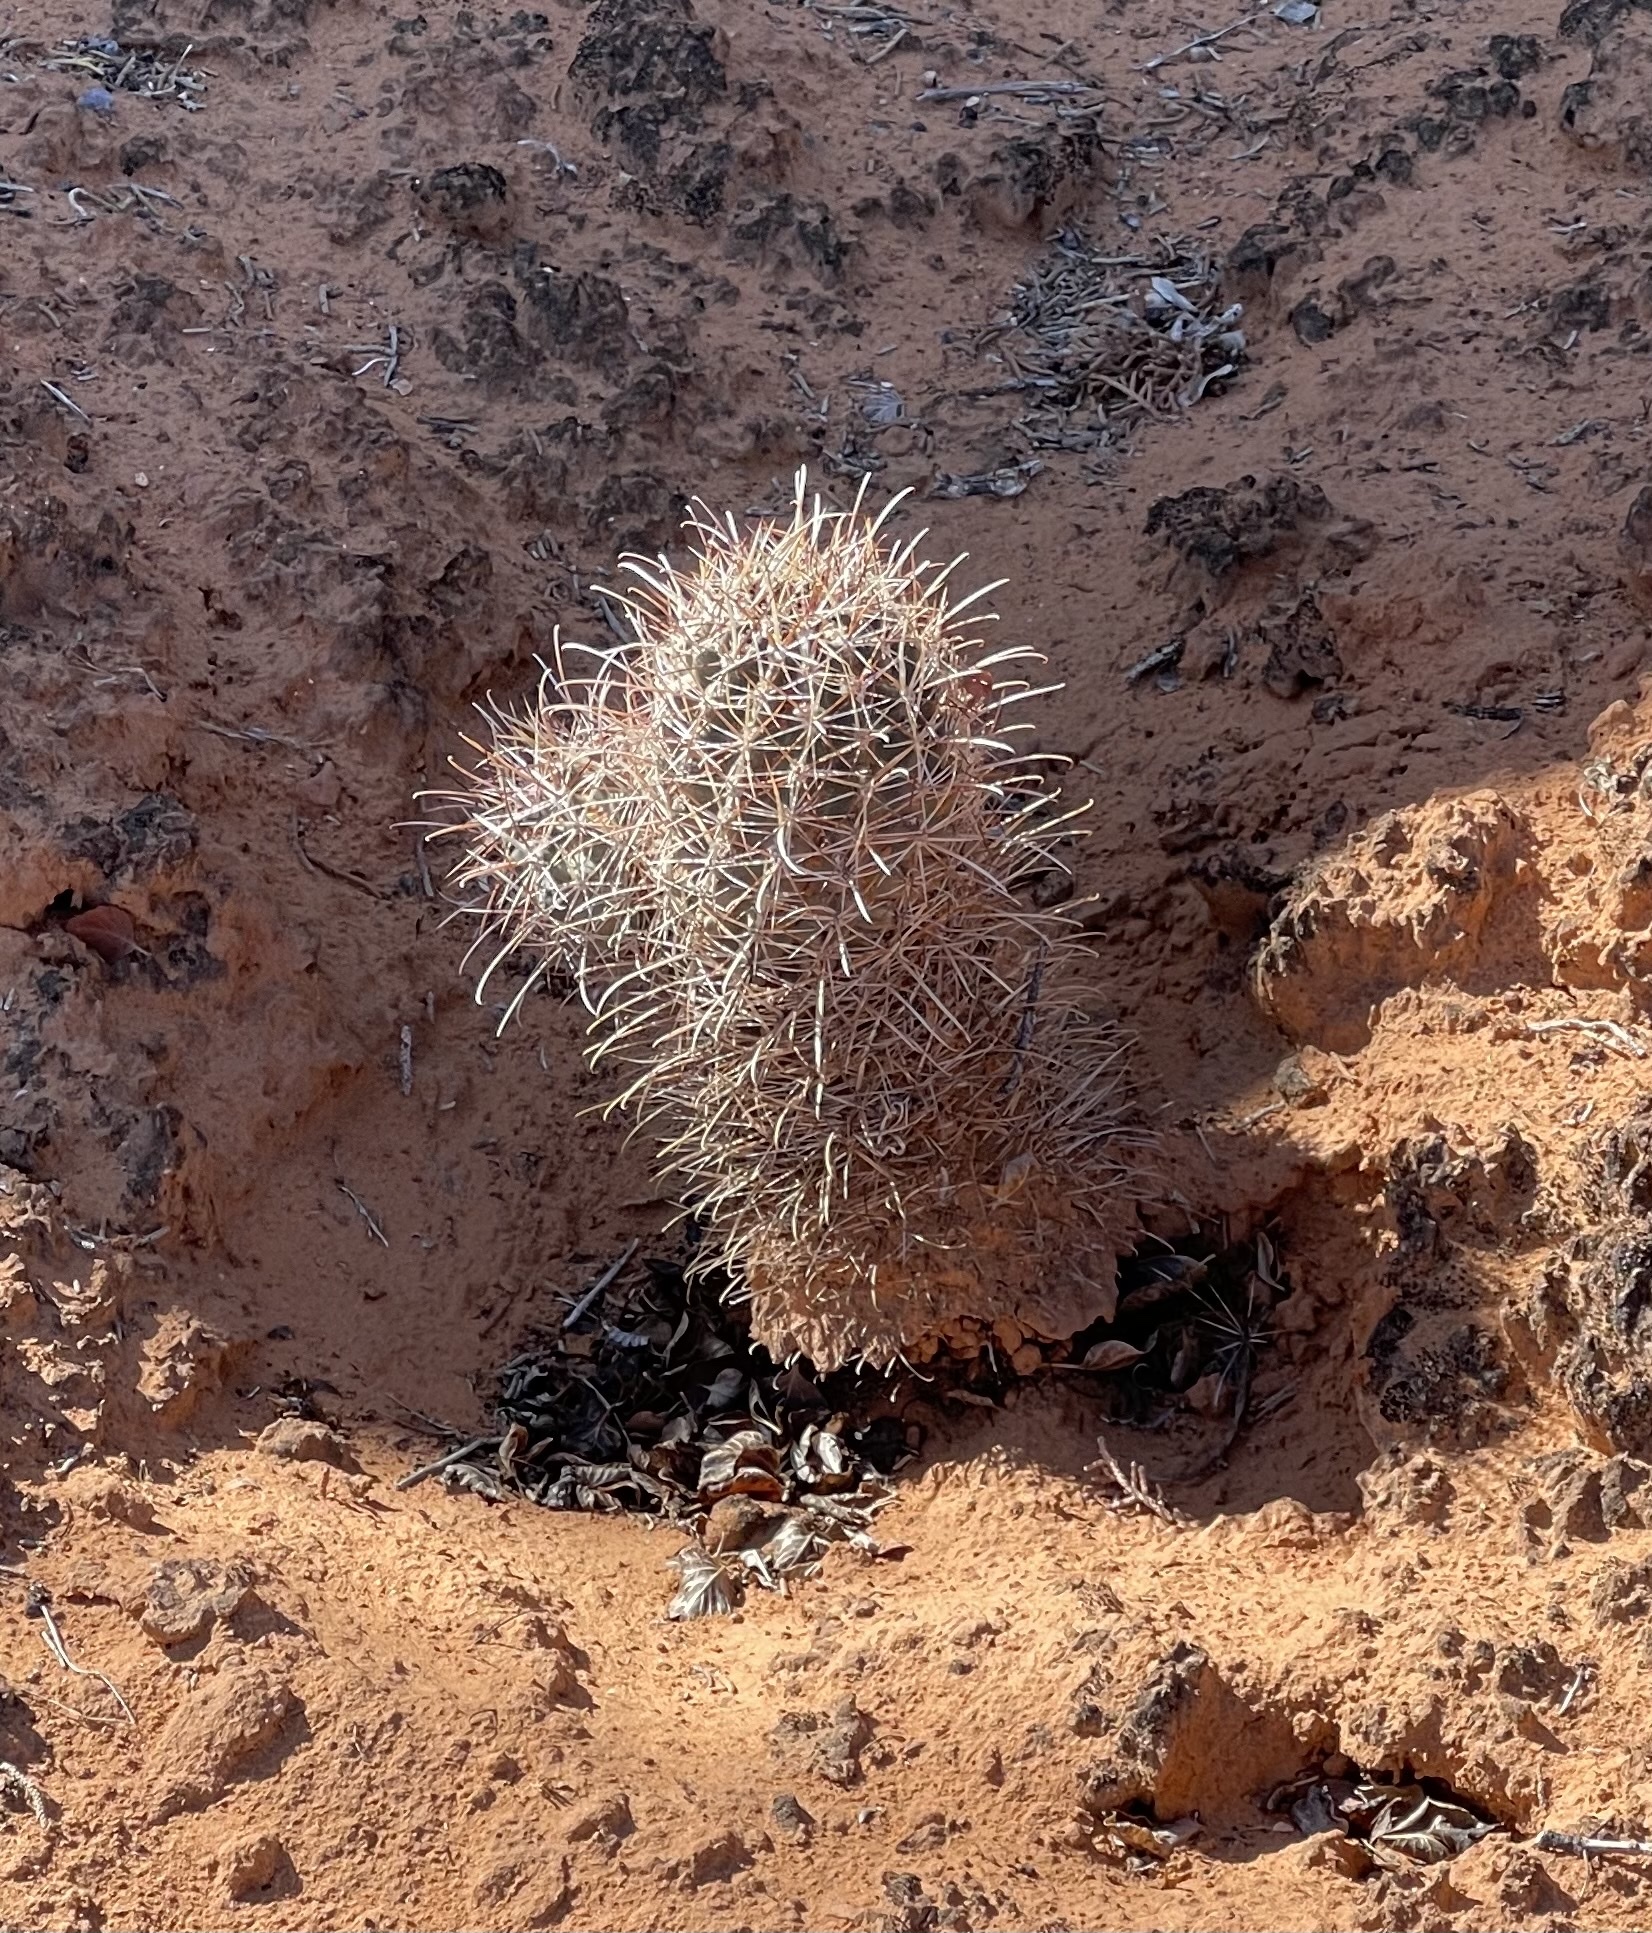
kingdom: Plantae
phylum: Tracheophyta
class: Magnoliopsida
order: Caryophyllales
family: Cactaceae
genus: Sclerocactus
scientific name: Sclerocactus parviflorus
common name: Small-flower fishhook cactus
